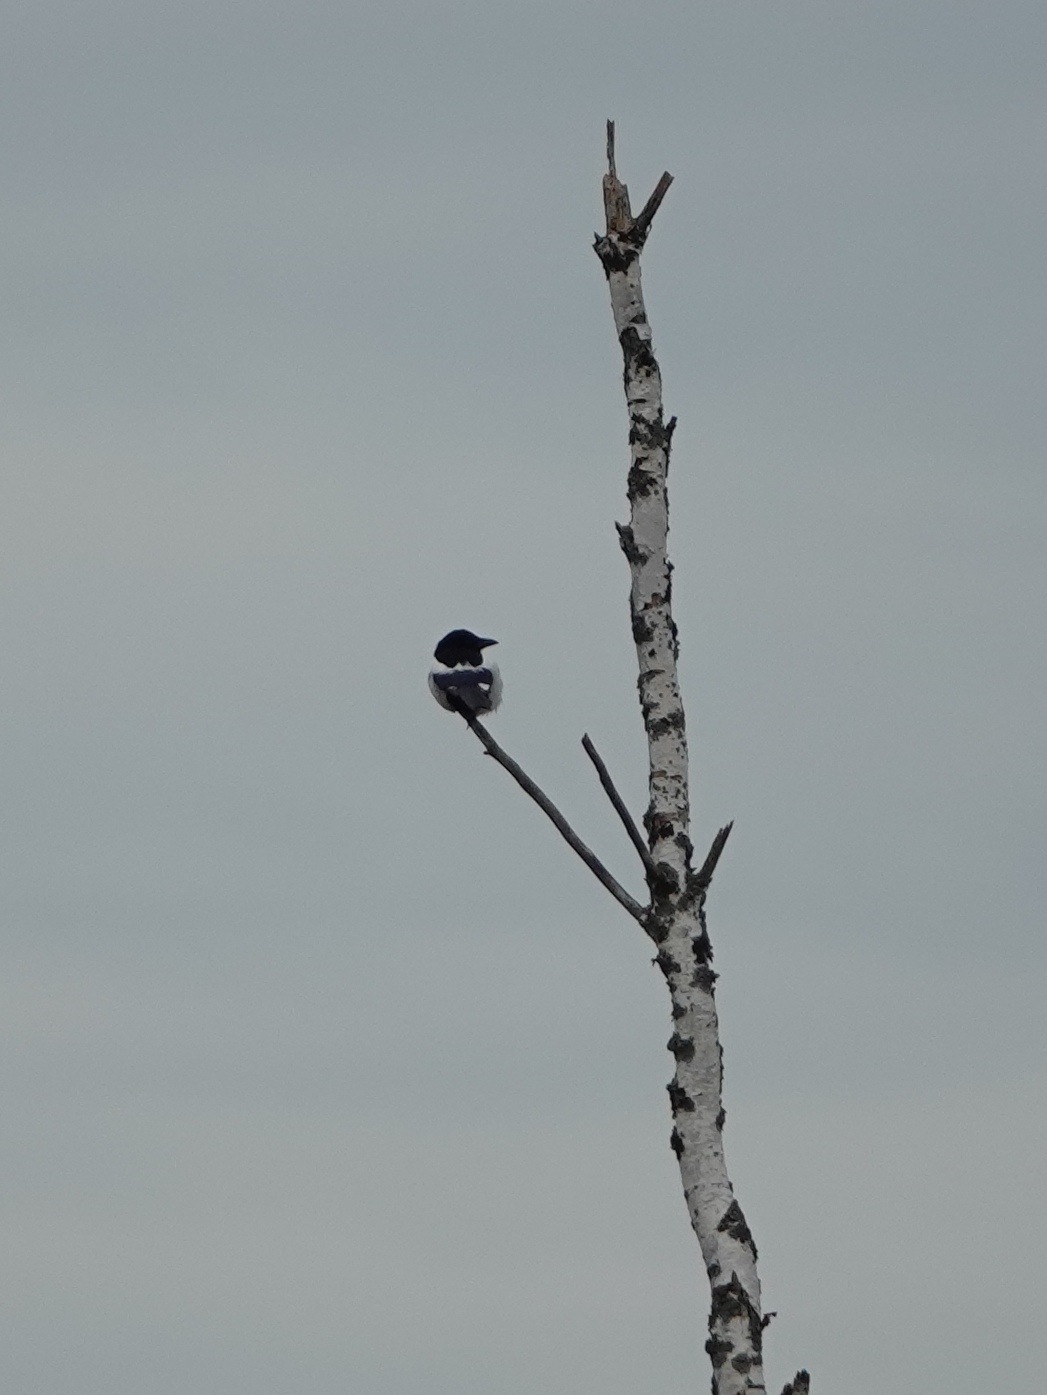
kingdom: Animalia
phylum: Chordata
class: Aves
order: Passeriformes
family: Corvidae
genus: Pica
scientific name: Pica pica
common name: Eurasian magpie
